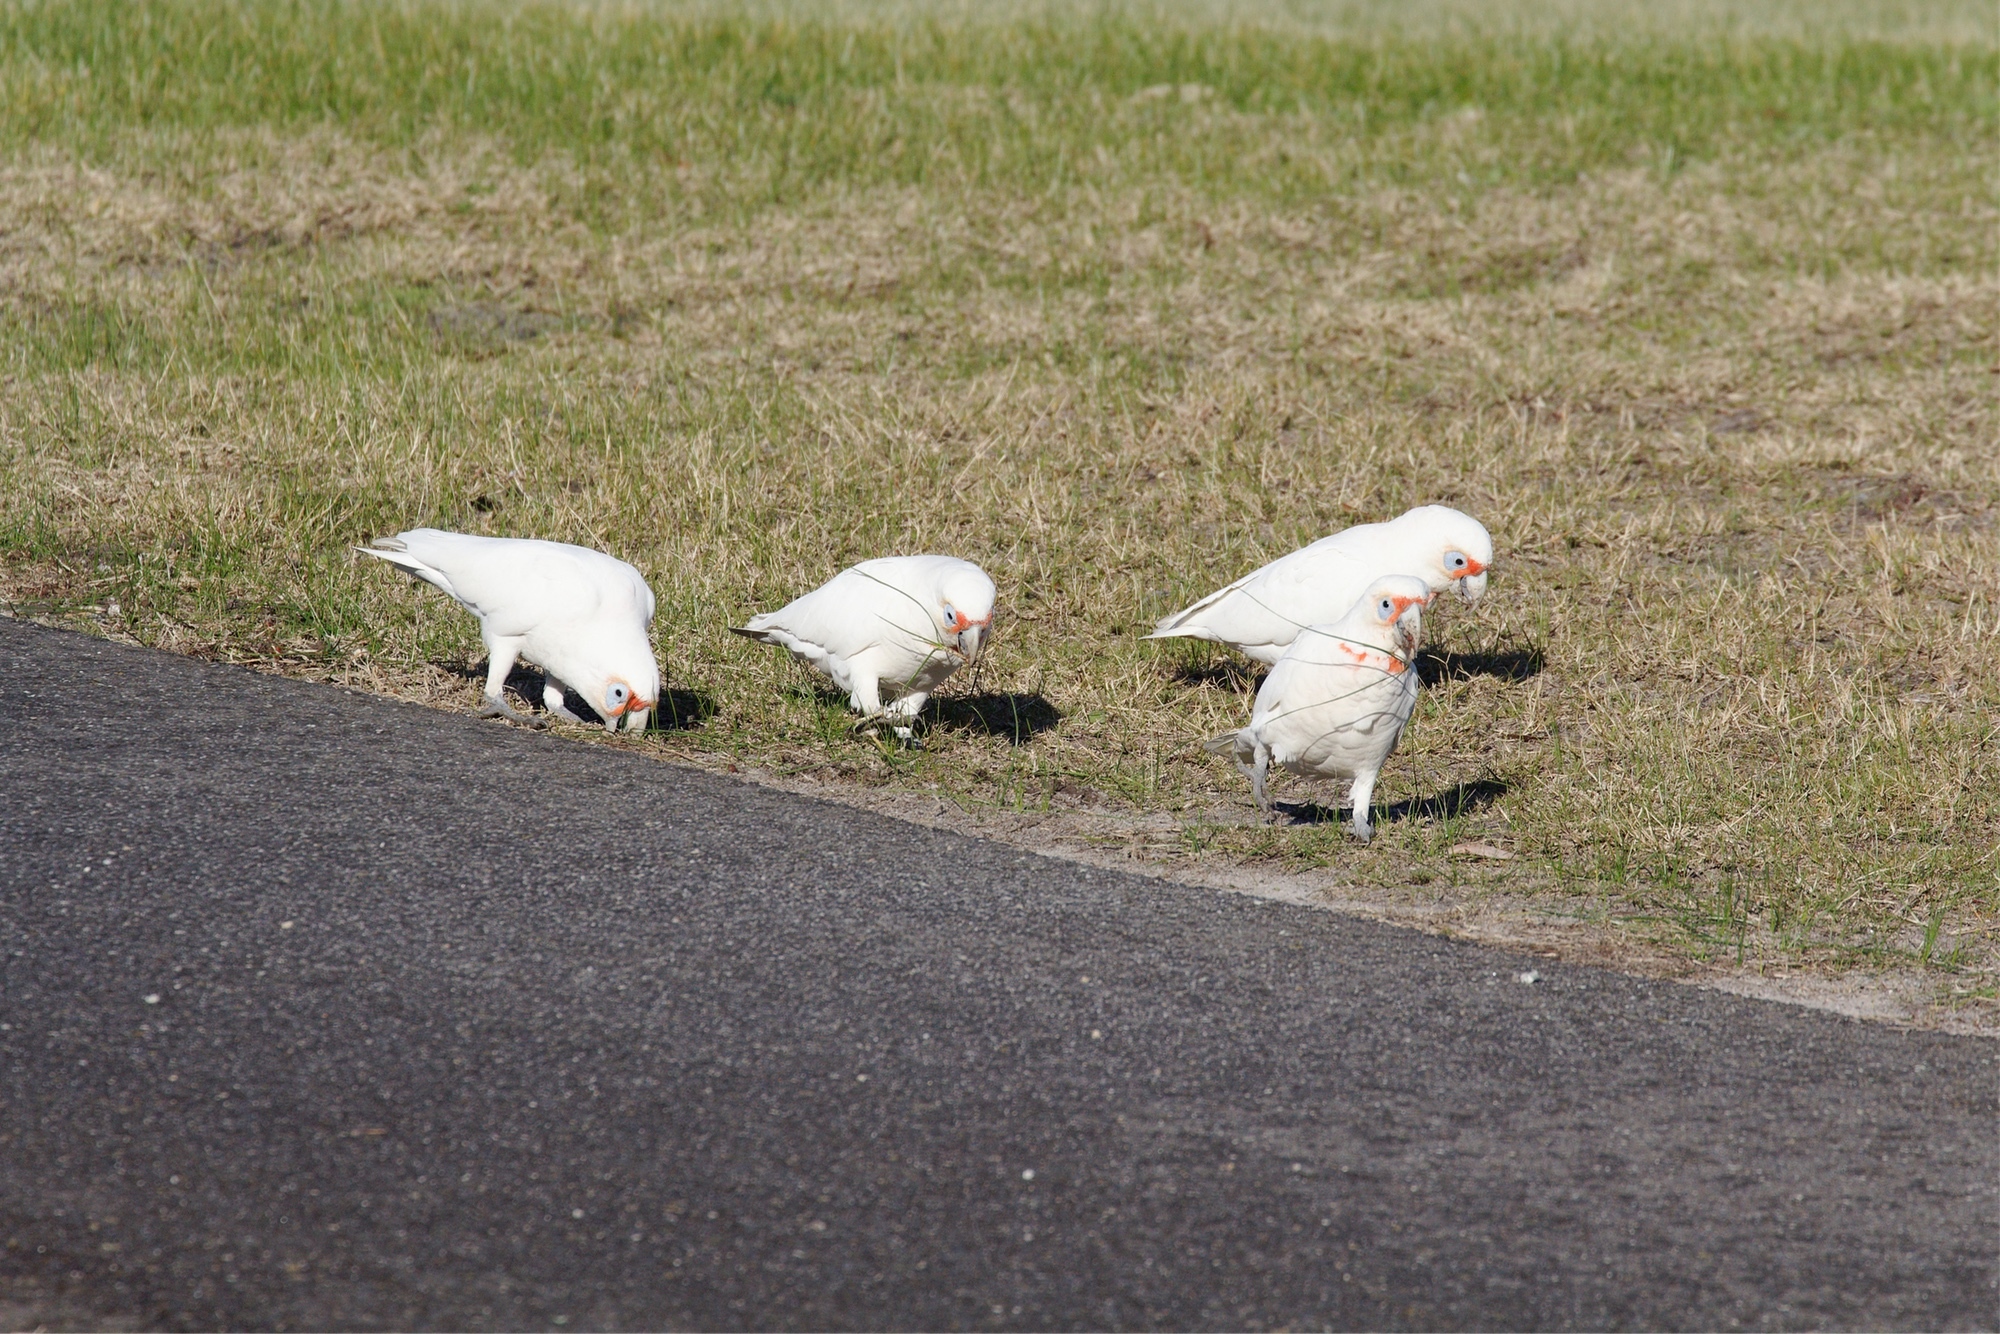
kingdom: Animalia
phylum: Chordata
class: Aves
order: Psittaciformes
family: Psittacidae
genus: Cacatua
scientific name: Cacatua tenuirostris
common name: Long-billed corella
